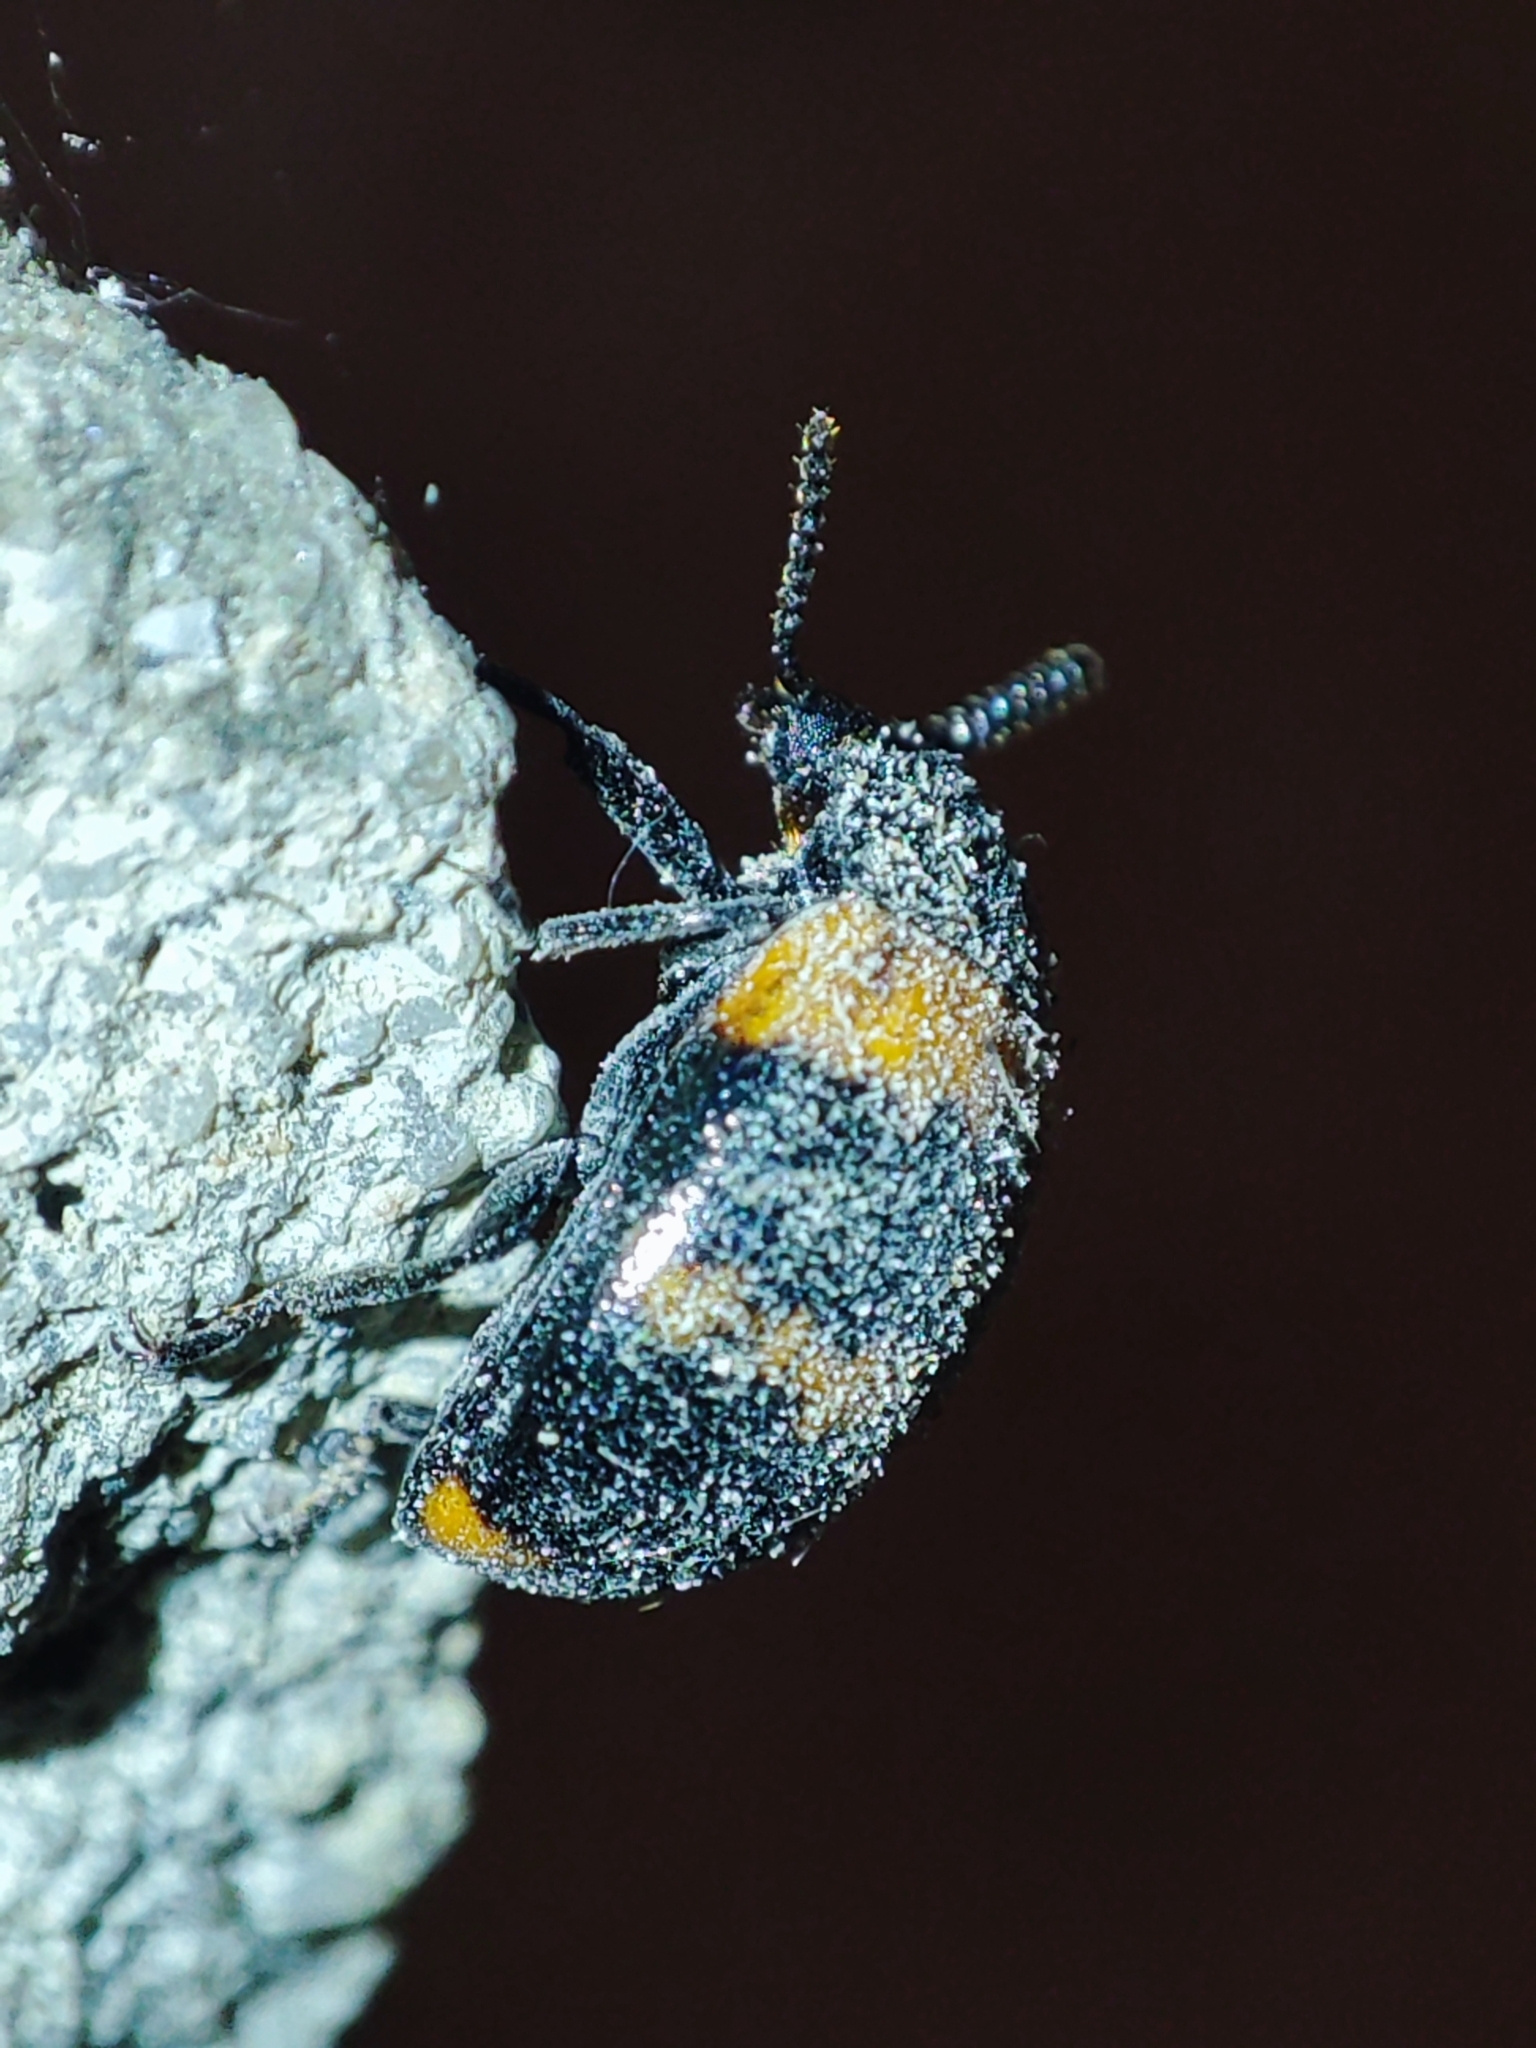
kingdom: Animalia
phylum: Arthropoda
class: Insecta
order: Coleoptera
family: Tenebrionidae
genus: Diaperis
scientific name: Diaperis boleti
